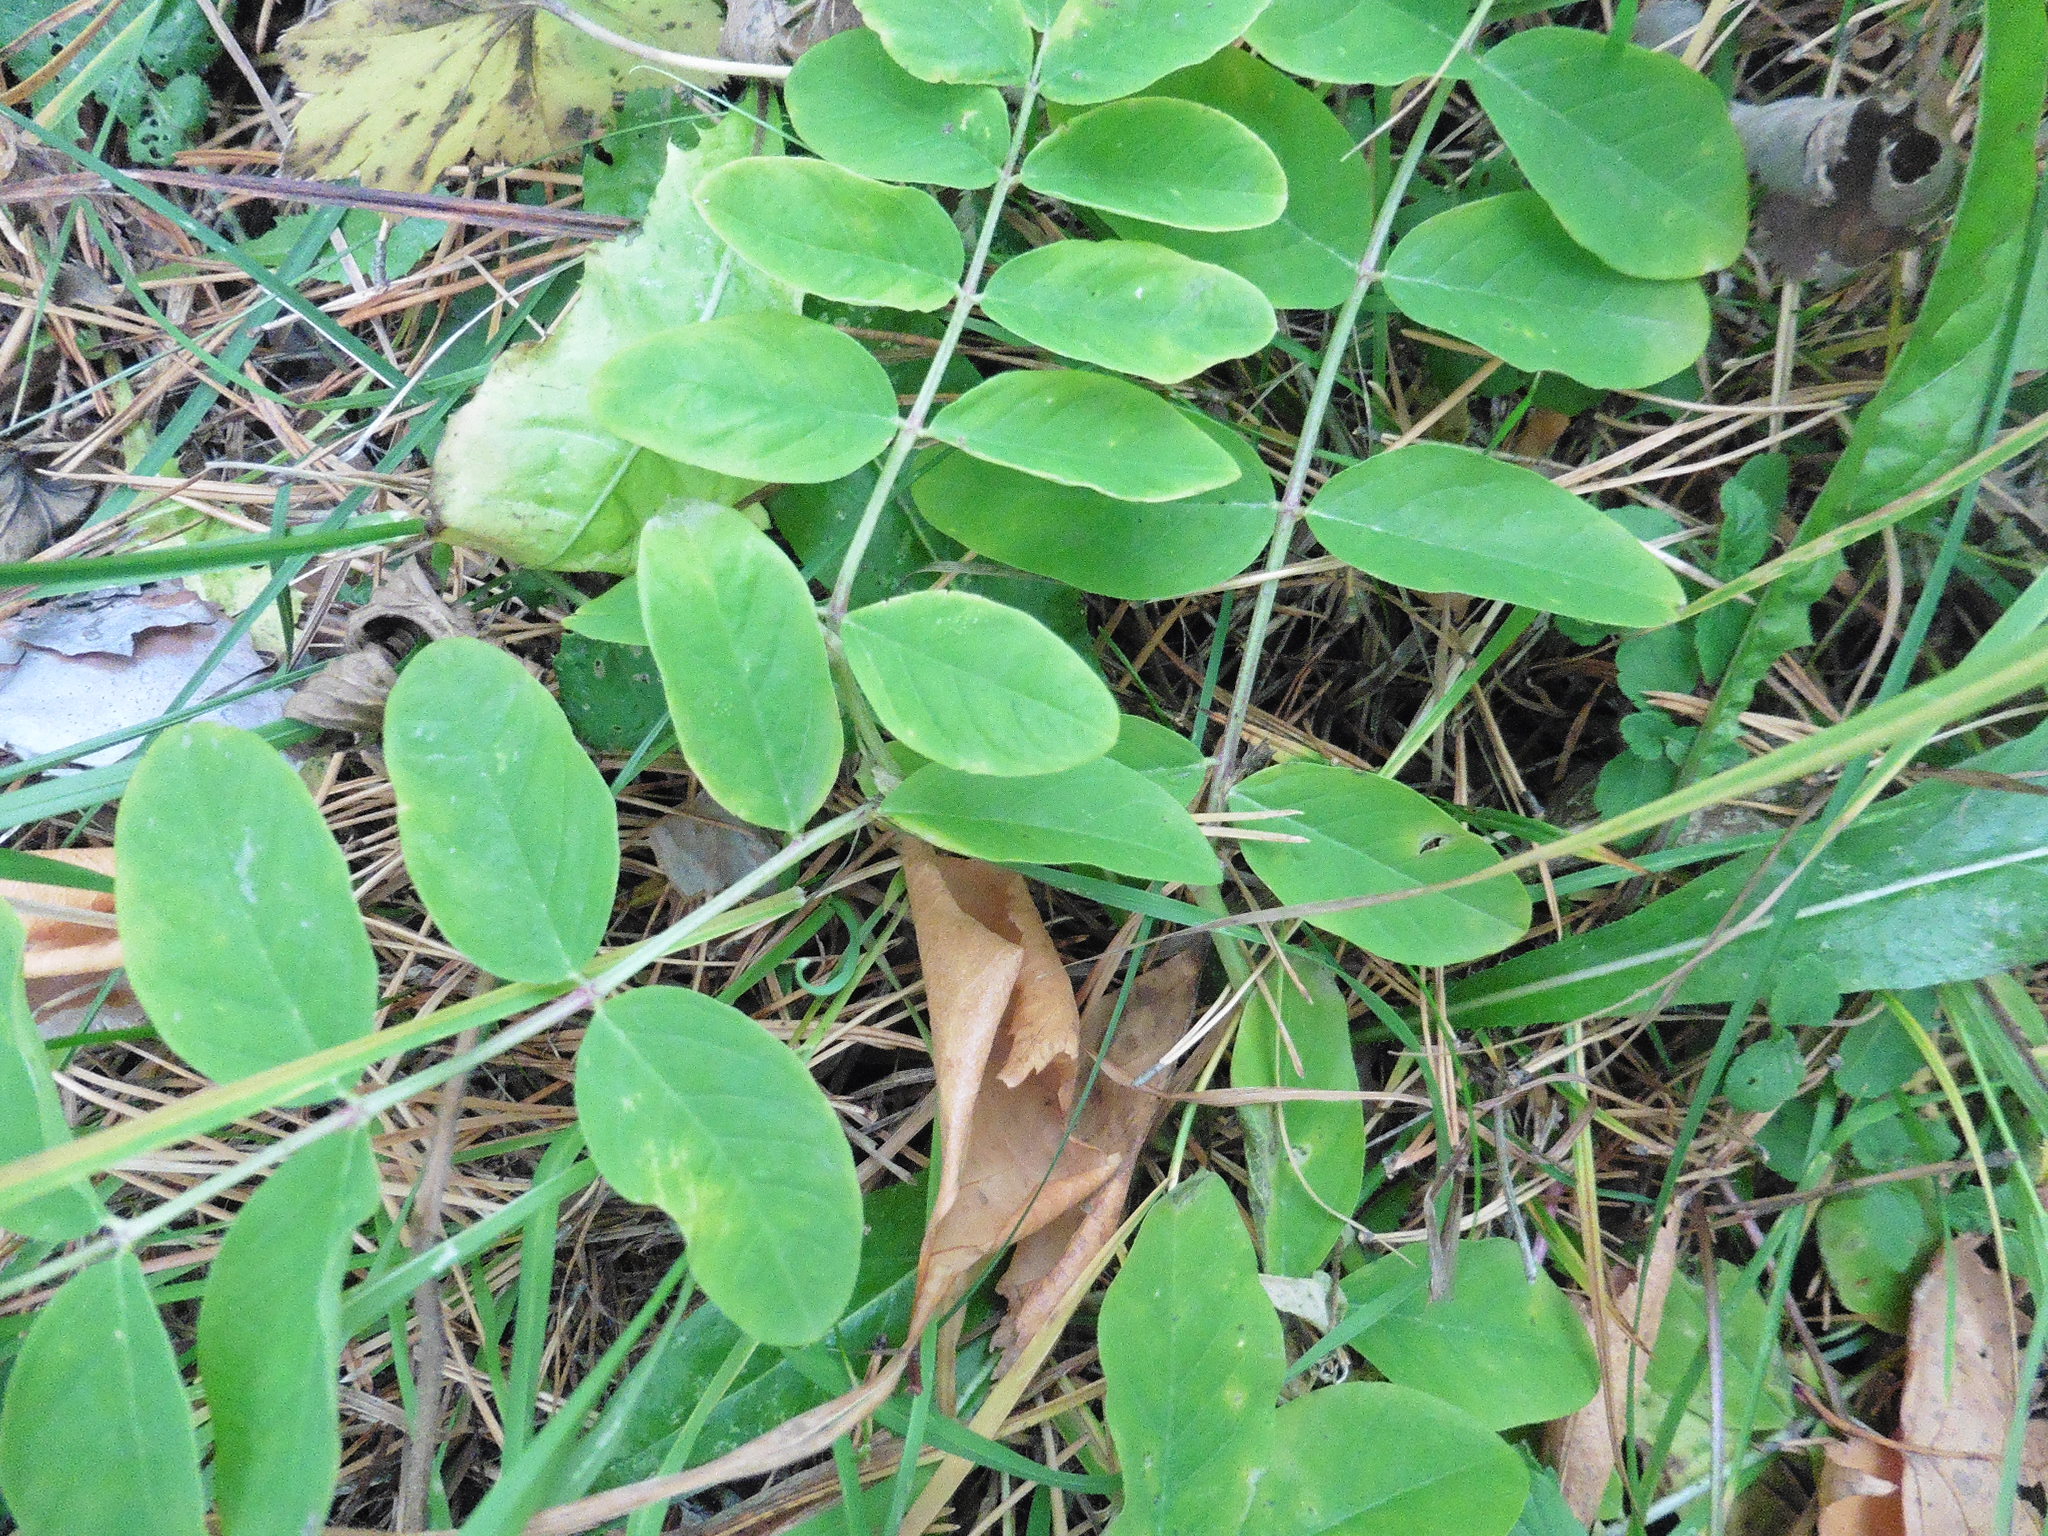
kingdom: Plantae
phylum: Tracheophyta
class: Magnoliopsida
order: Fabales
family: Fabaceae
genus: Astragalus
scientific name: Astragalus glycyphyllos
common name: Wild liquorice
